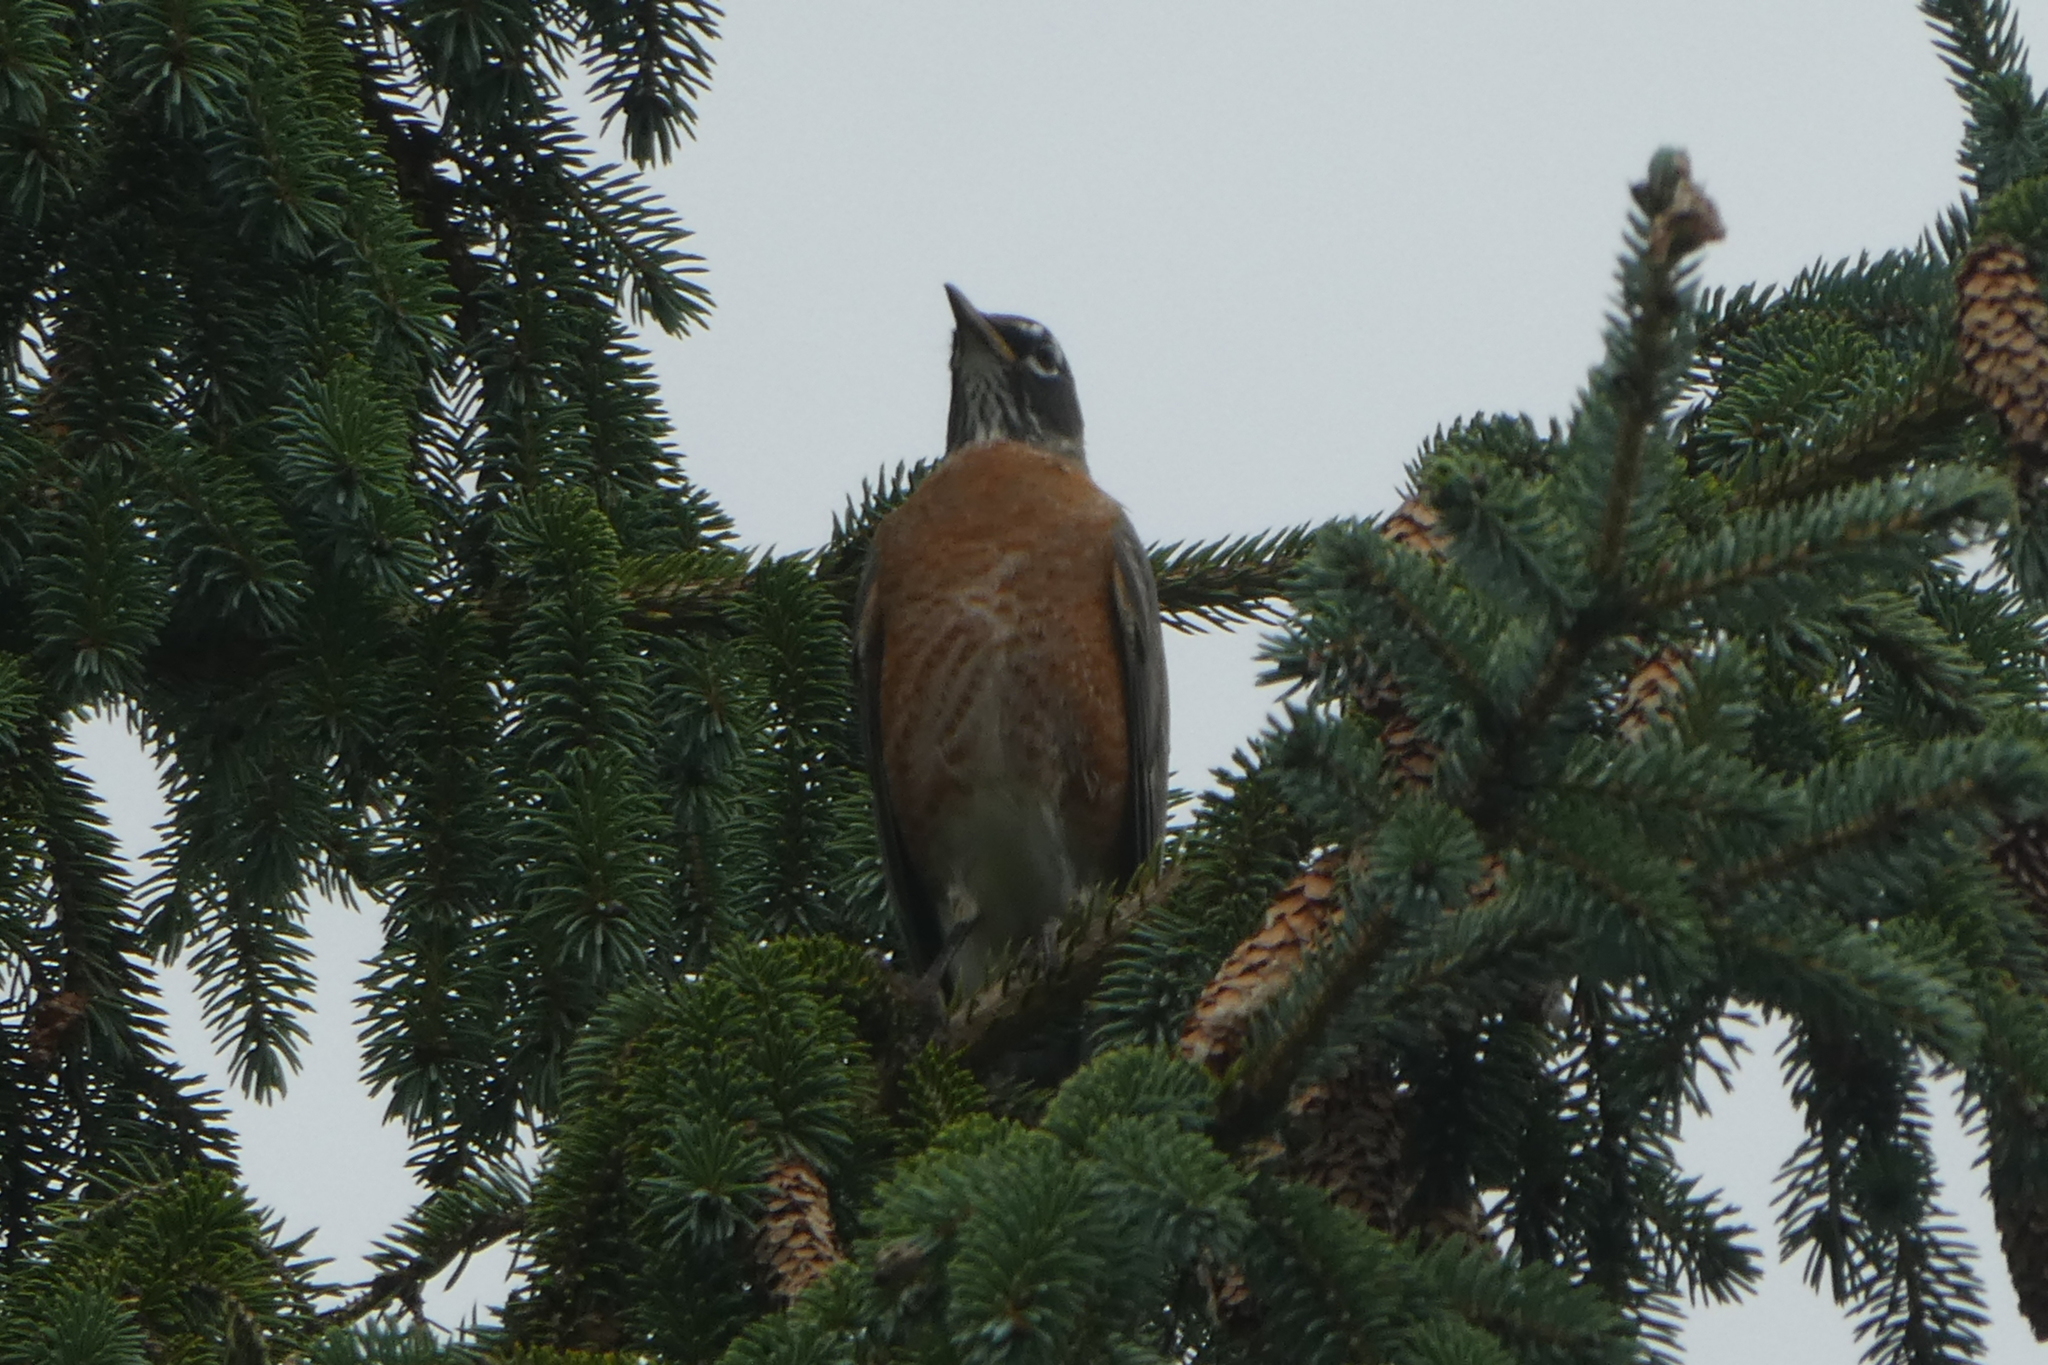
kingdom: Animalia
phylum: Chordata
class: Aves
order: Passeriformes
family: Turdidae
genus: Turdus
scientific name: Turdus migratorius
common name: American robin
